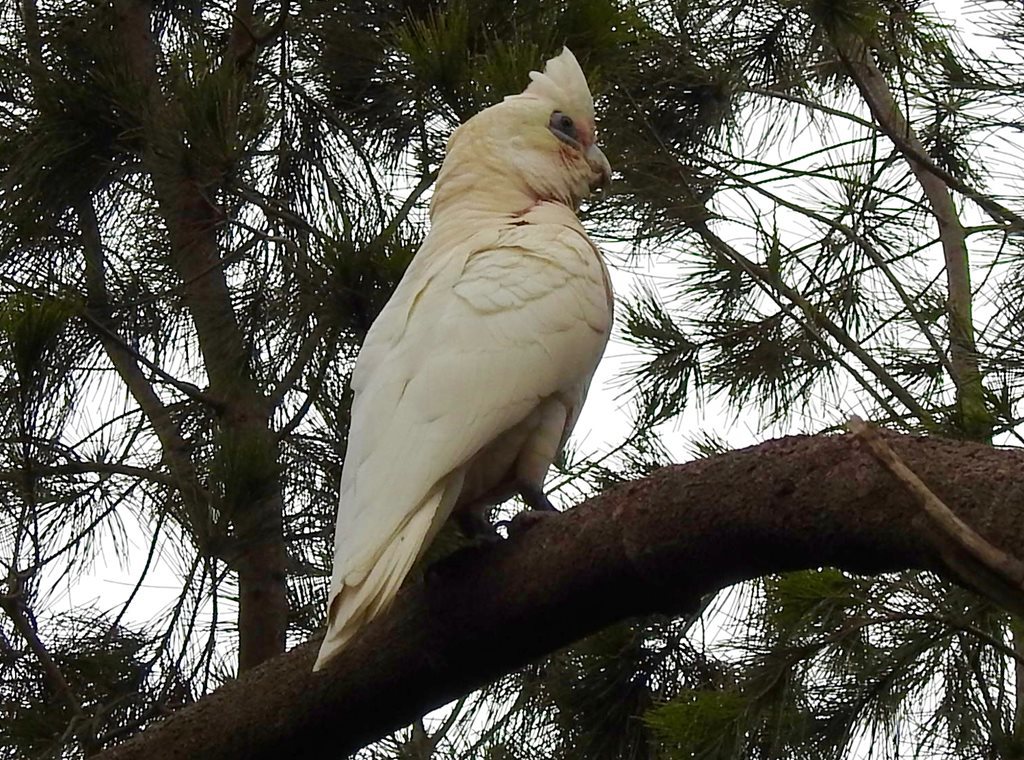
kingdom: Animalia
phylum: Chordata
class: Aves
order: Psittaciformes
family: Psittacidae
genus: Cacatua
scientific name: Cacatua sanguinea
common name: Little corella
